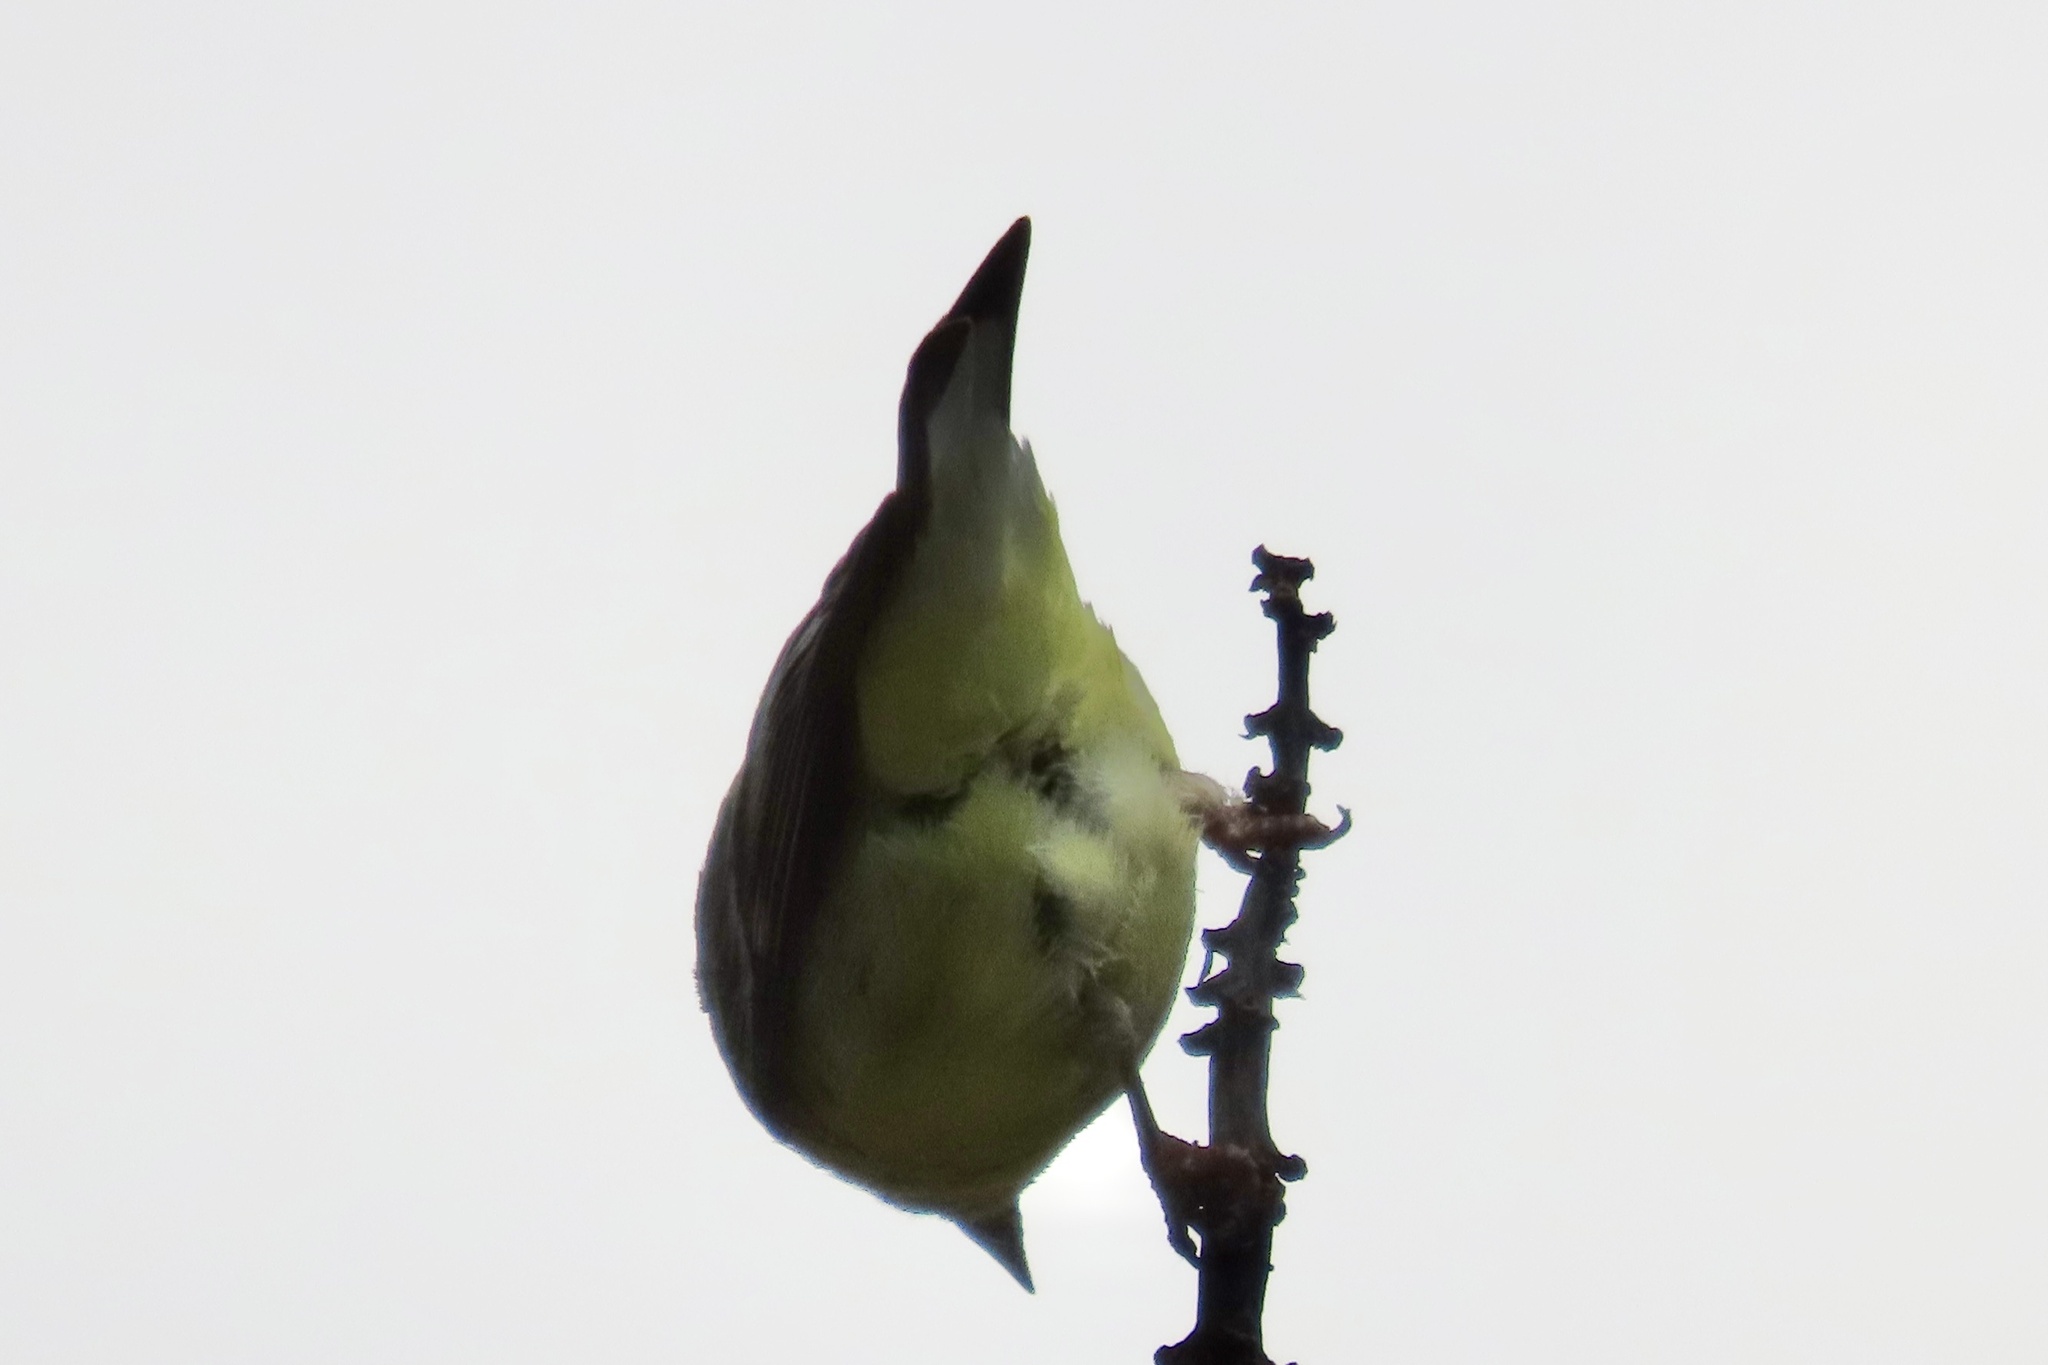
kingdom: Animalia
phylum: Chordata
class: Aves
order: Passeriformes
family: Fringillidae
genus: Spinus
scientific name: Spinus psaltria
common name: Lesser goldfinch
